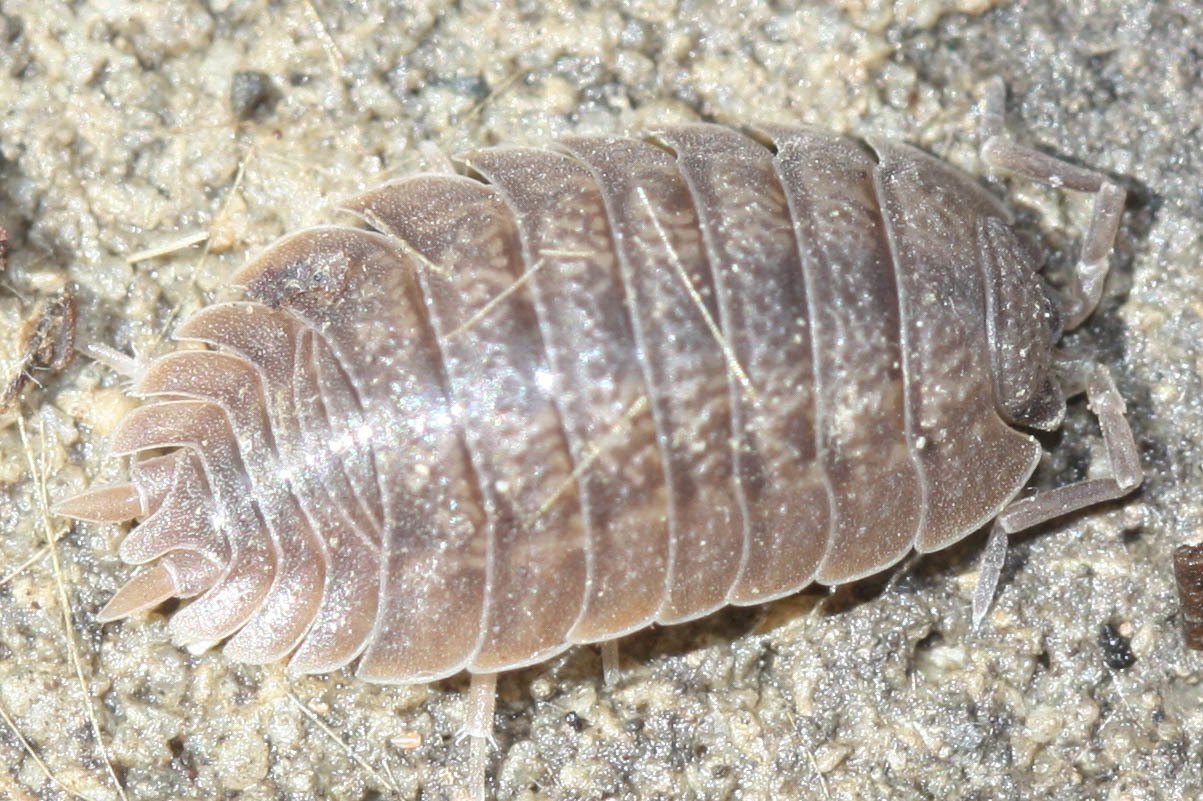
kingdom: Animalia
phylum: Arthropoda
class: Malacostraca
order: Isopoda
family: Porcellionidae
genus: Porcellio
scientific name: Porcellio dilatatus
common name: Isopod
